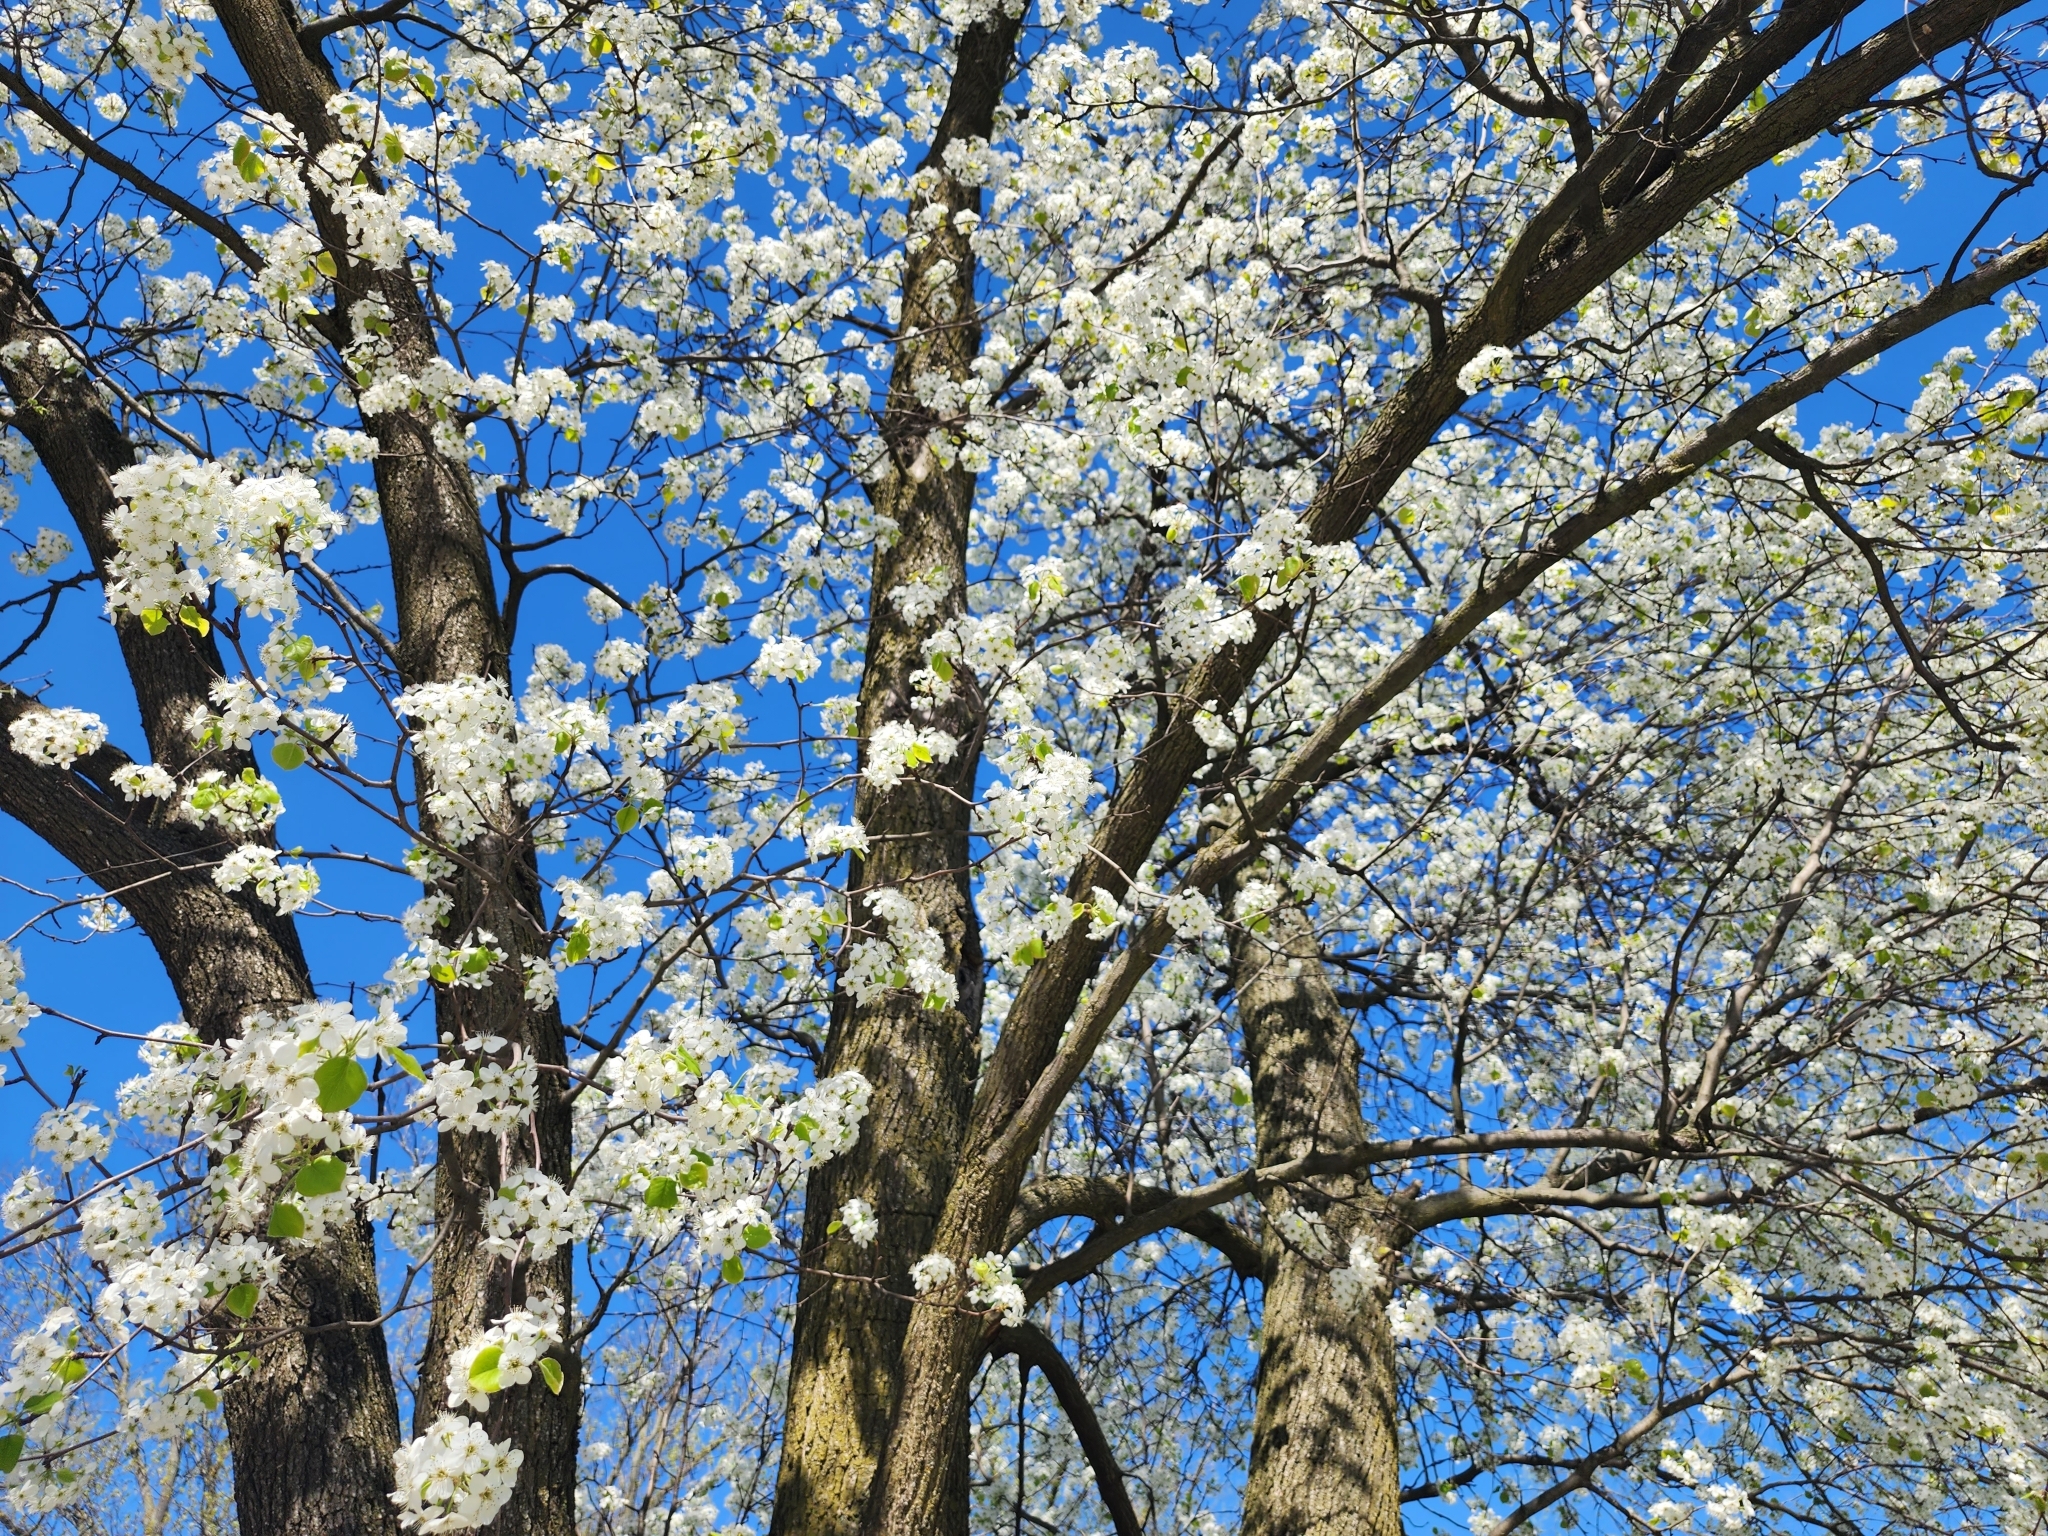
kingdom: Plantae
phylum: Tracheophyta
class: Magnoliopsida
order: Rosales
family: Rosaceae
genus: Pyrus
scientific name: Pyrus calleryana
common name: Callery pear
